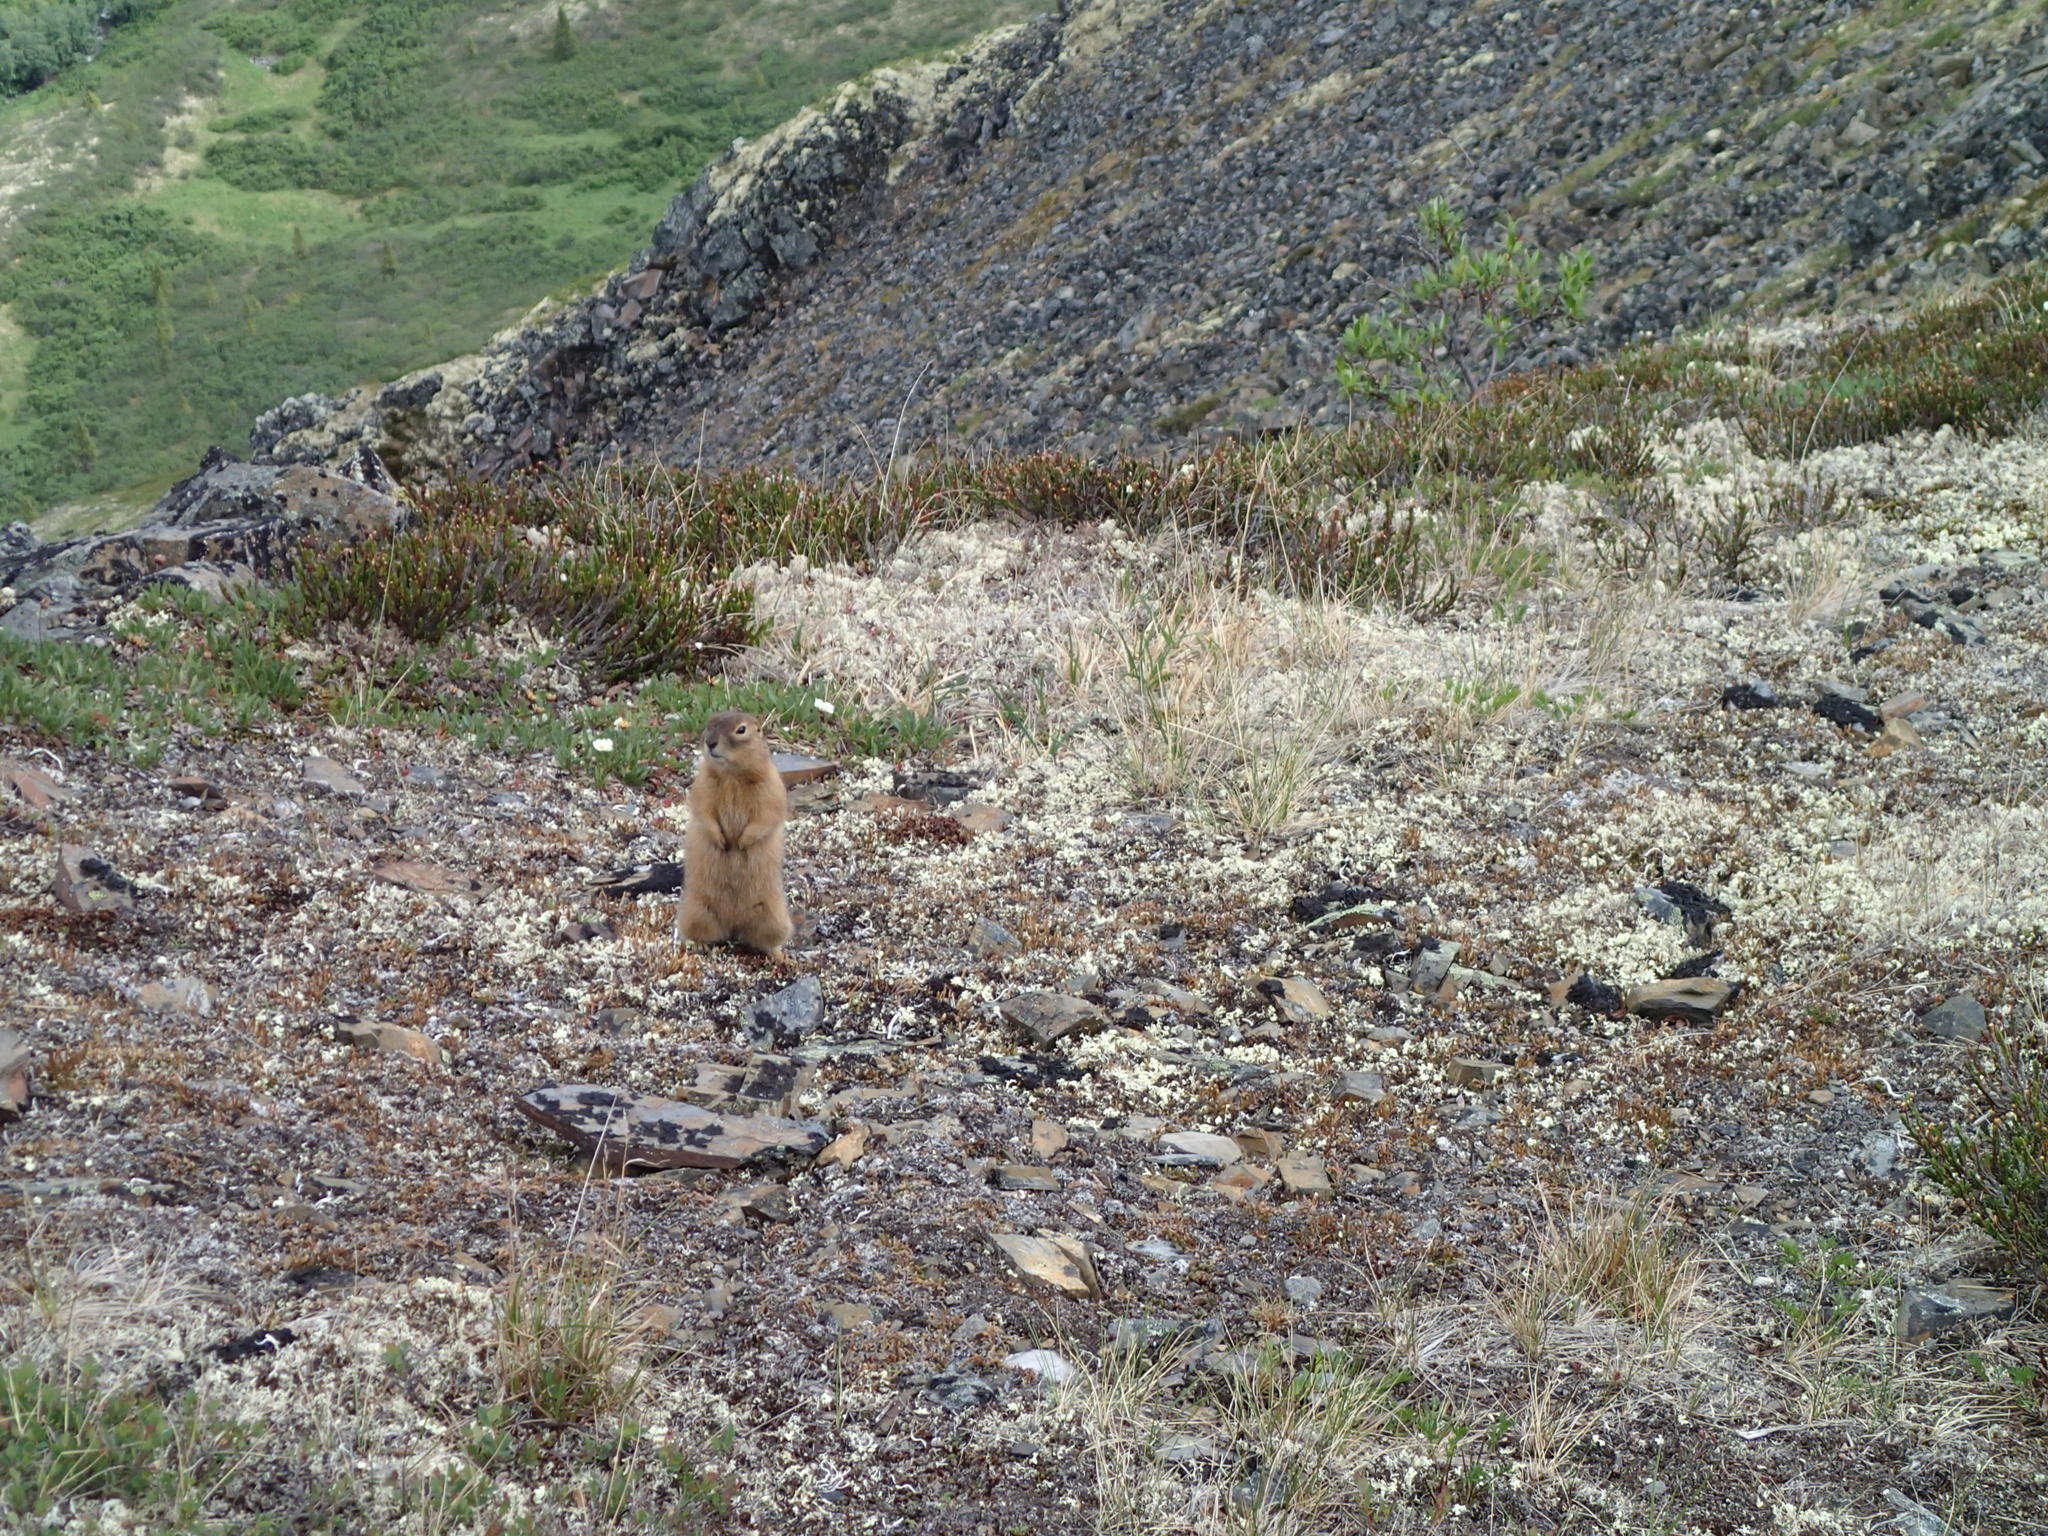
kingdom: Animalia
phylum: Chordata
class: Mammalia
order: Rodentia
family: Sciuridae
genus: Urocitellus
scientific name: Urocitellus parryii
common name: Arctic ground squirrel
